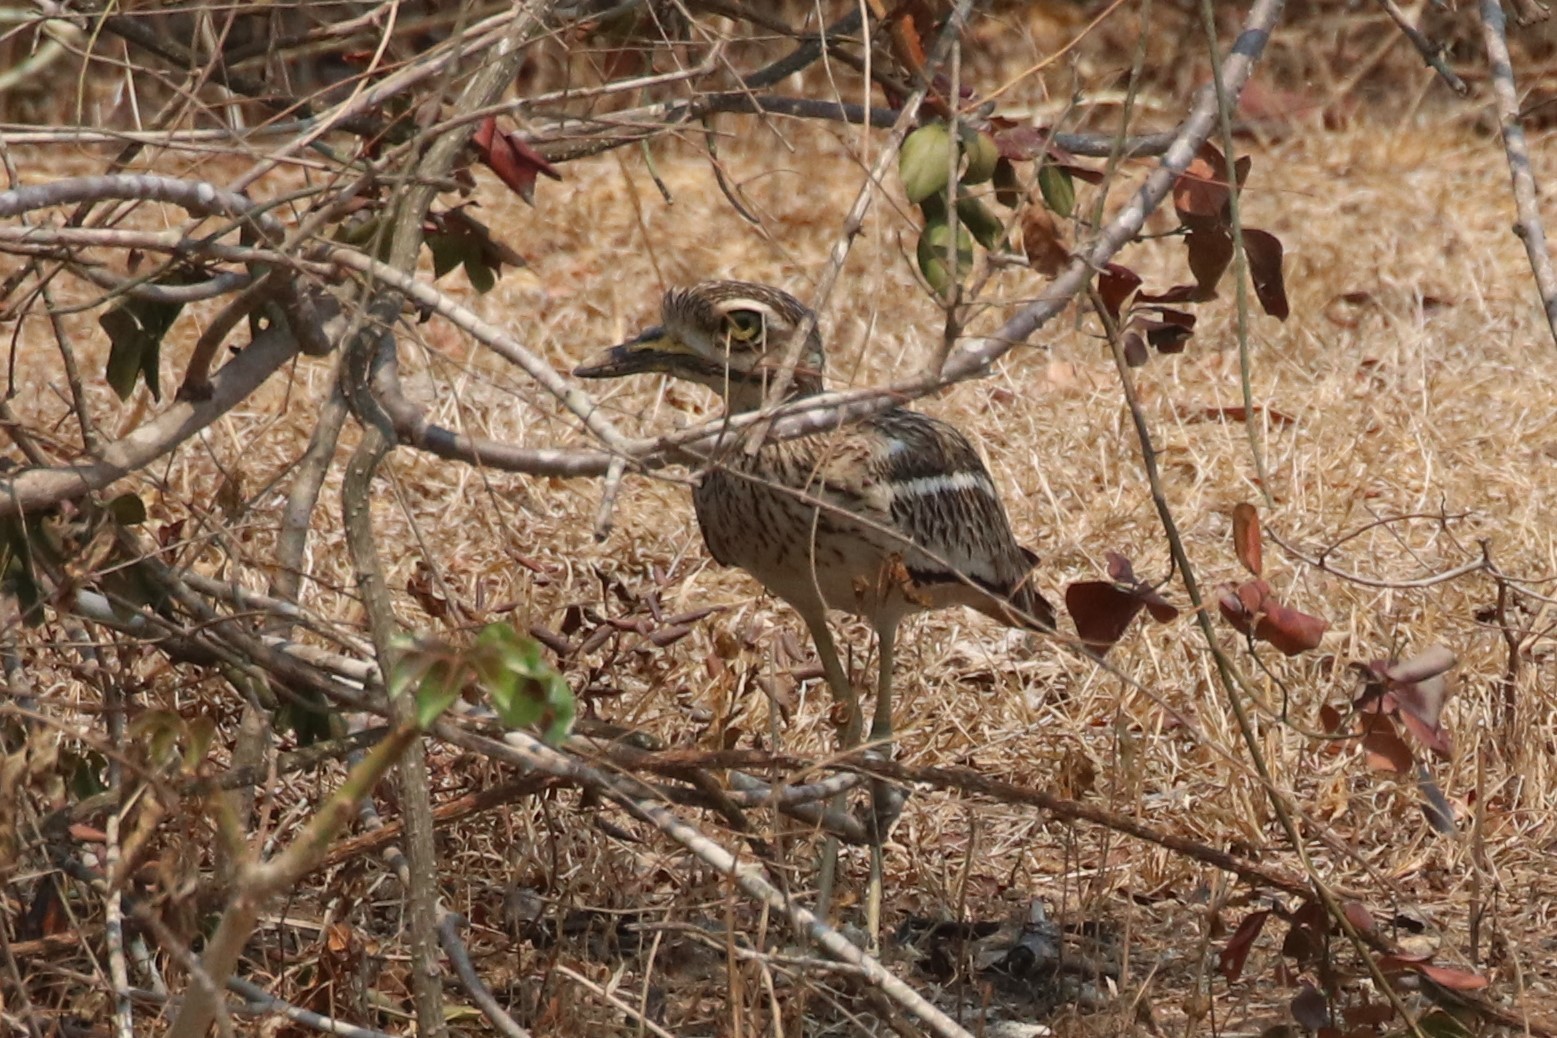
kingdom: Animalia
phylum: Chordata
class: Aves
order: Charadriiformes
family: Burhinidae
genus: Burhinus
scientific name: Burhinus indicus
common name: Indian thick-knee
